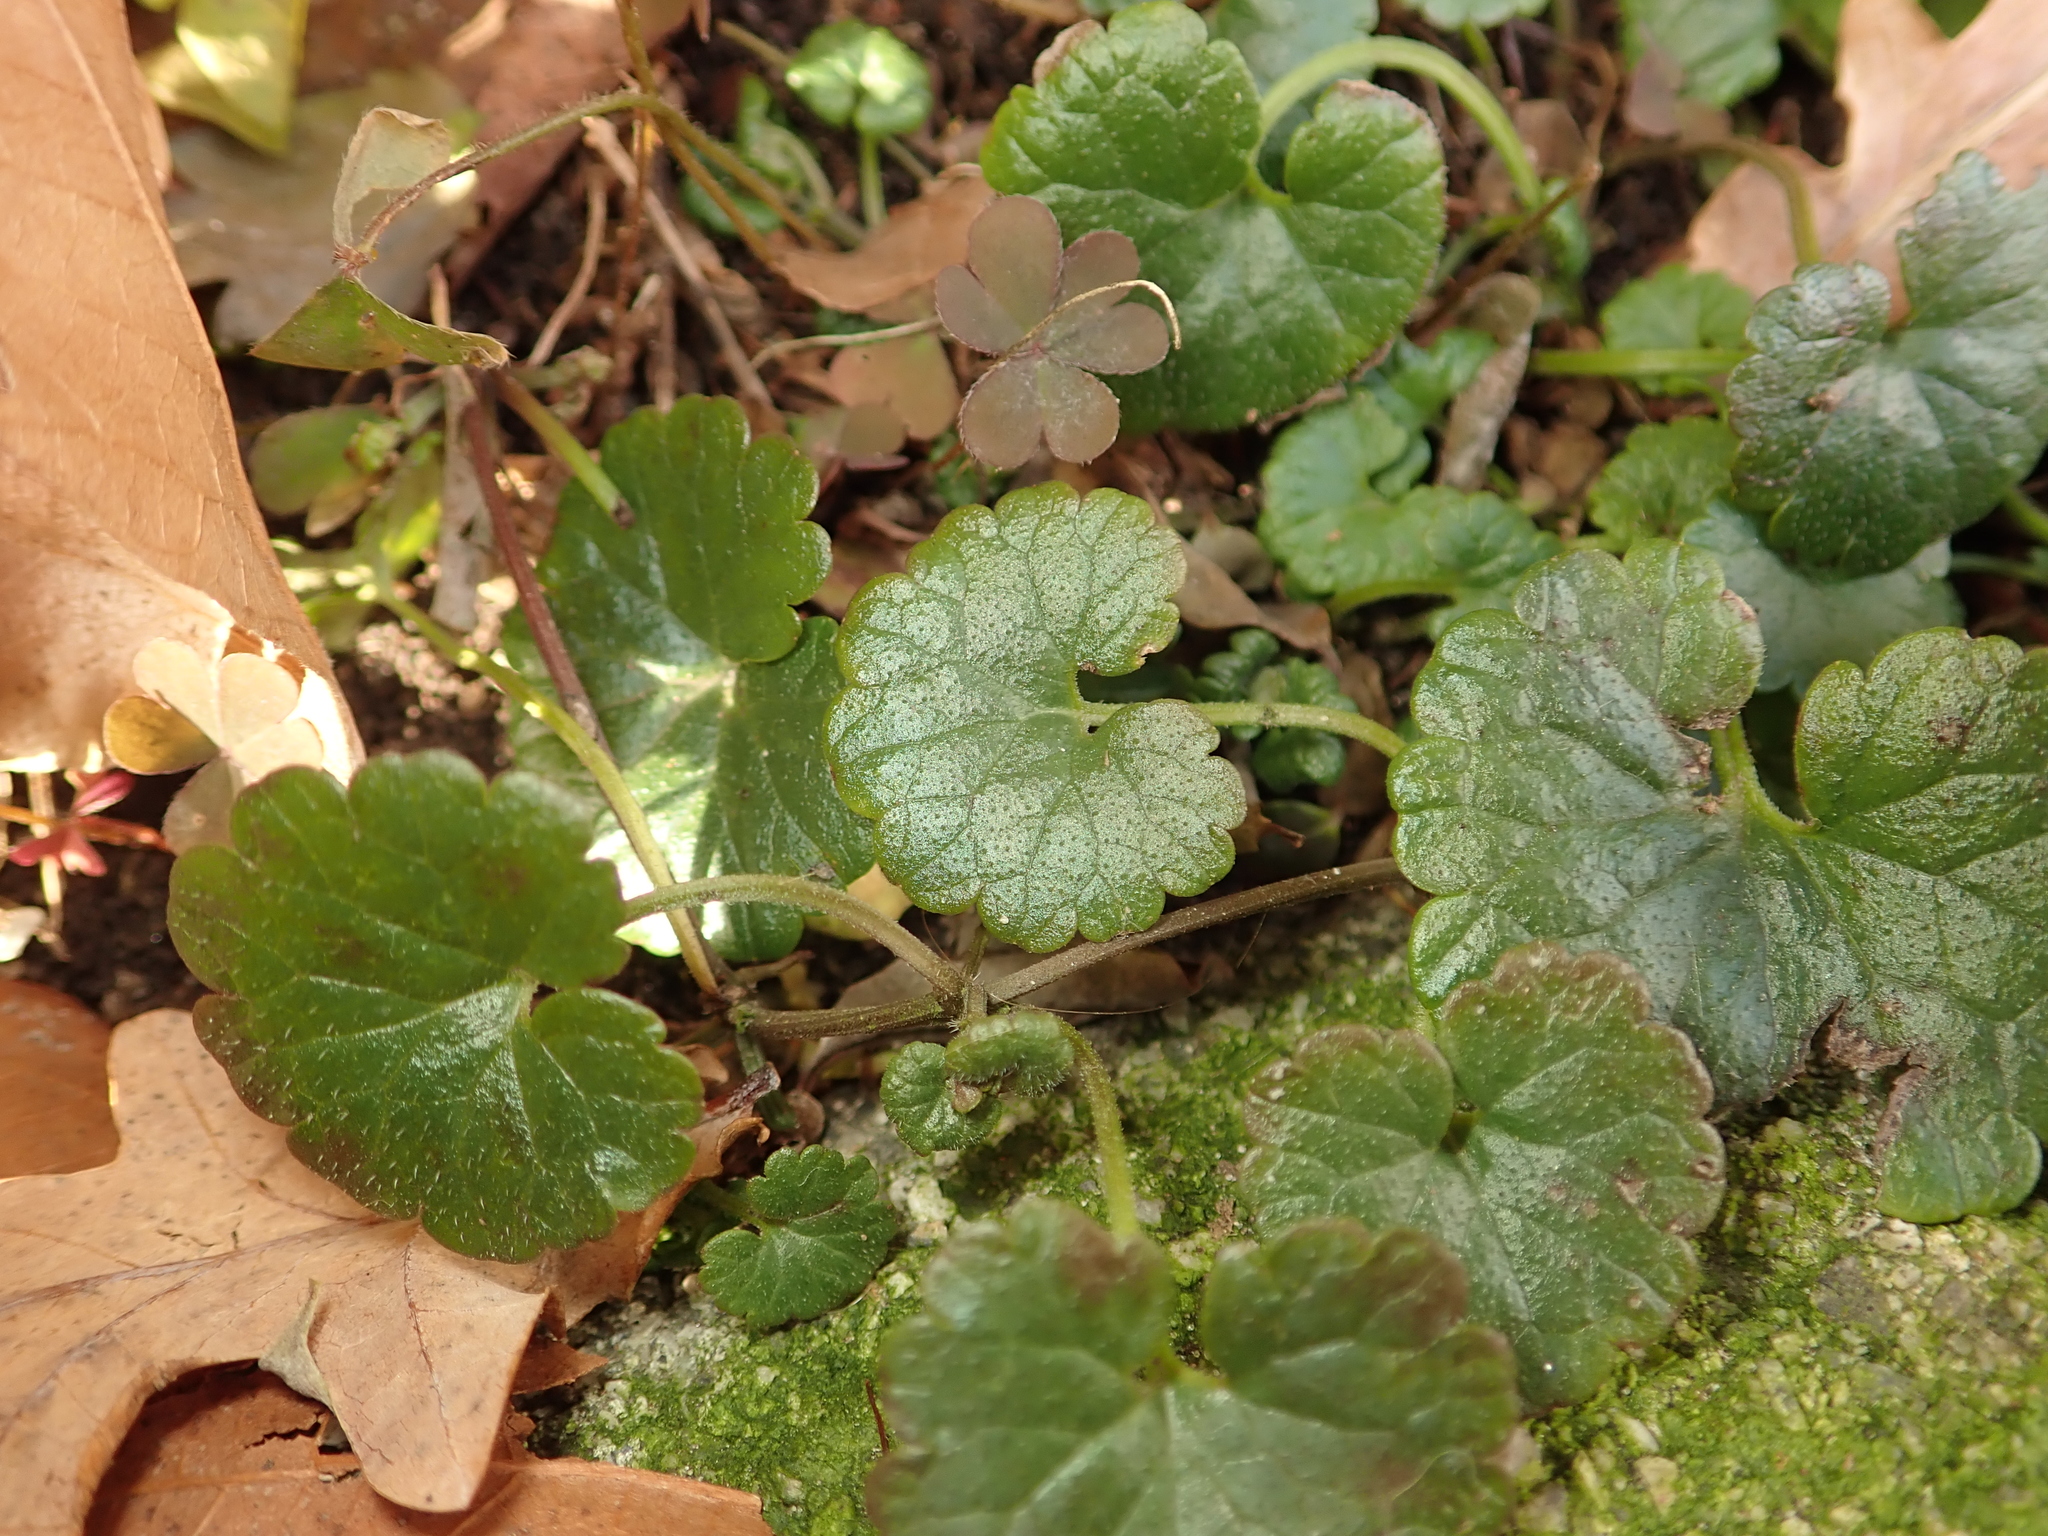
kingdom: Plantae
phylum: Tracheophyta
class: Magnoliopsida
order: Lamiales
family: Lamiaceae
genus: Glechoma
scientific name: Glechoma hederacea
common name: Ground ivy
